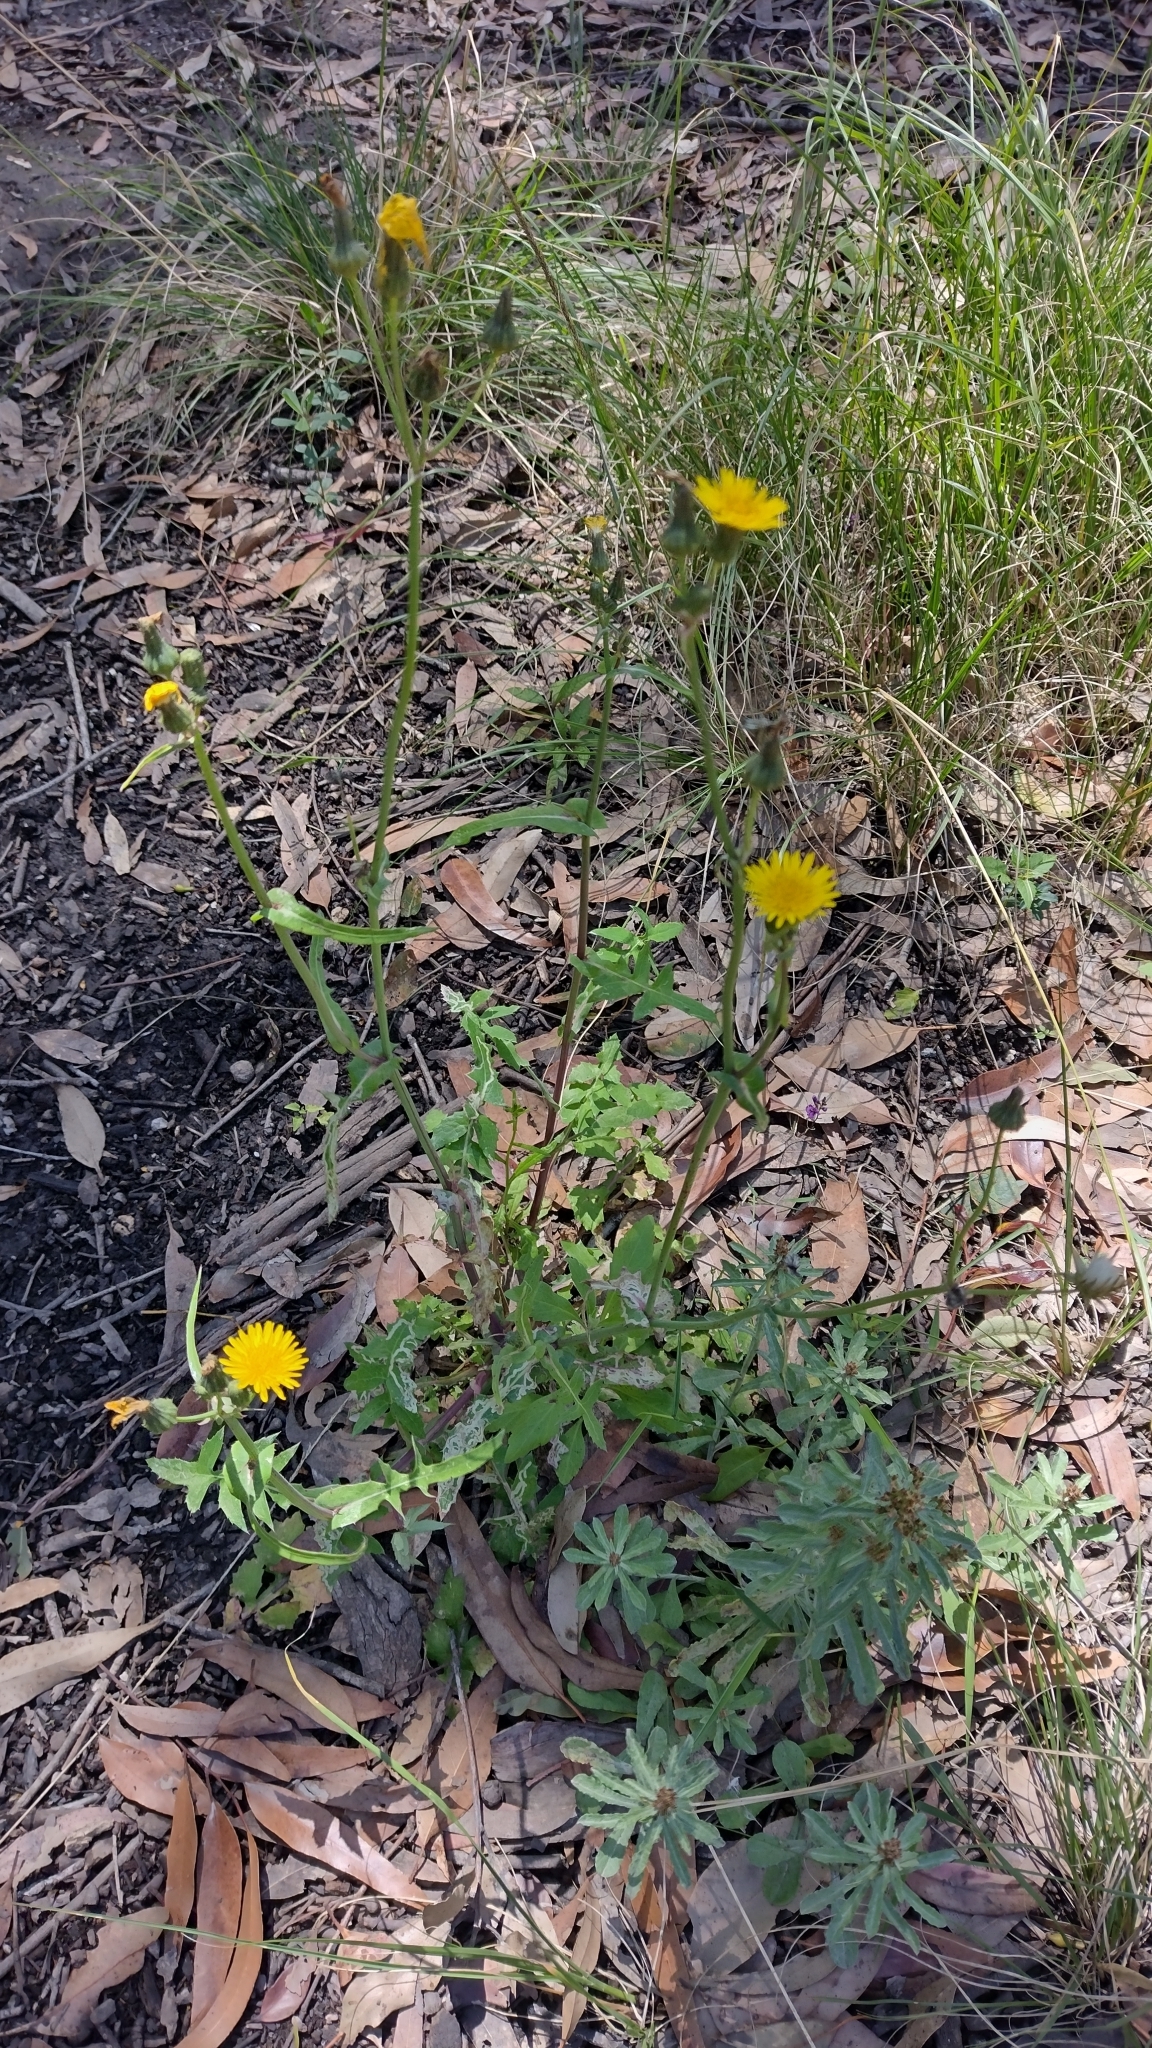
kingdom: Plantae
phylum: Tracheophyta
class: Magnoliopsida
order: Asterales
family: Asteraceae
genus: Sonchus
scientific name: Sonchus oleraceus
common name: Common sowthistle
